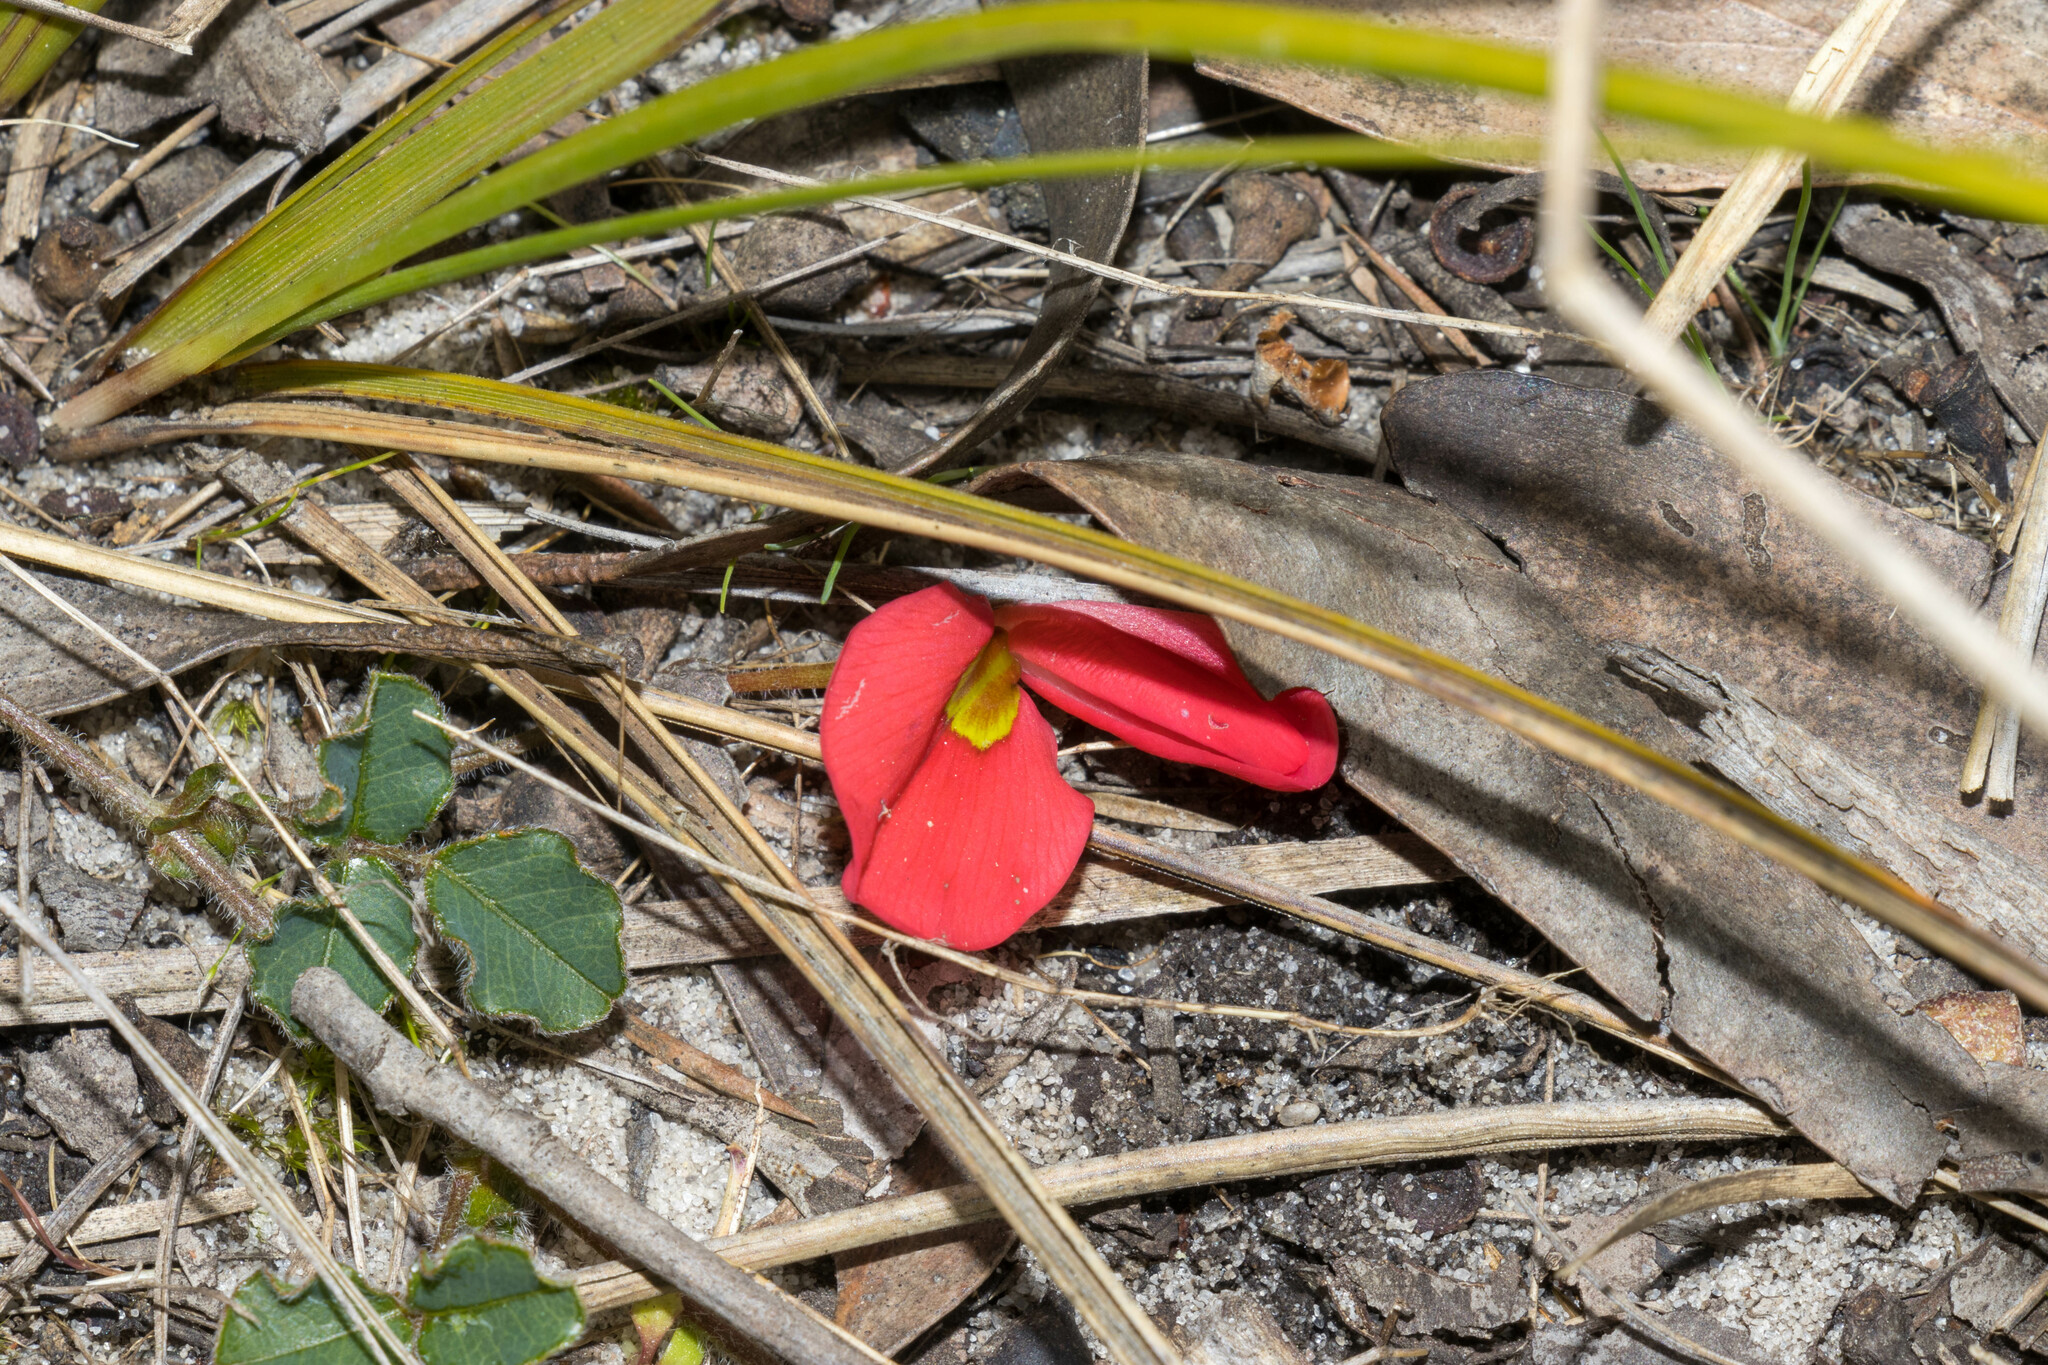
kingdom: Plantae
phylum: Tracheophyta
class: Magnoliopsida
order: Fabales
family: Fabaceae
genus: Kennedia
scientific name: Kennedia prostrata
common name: Running-postman
